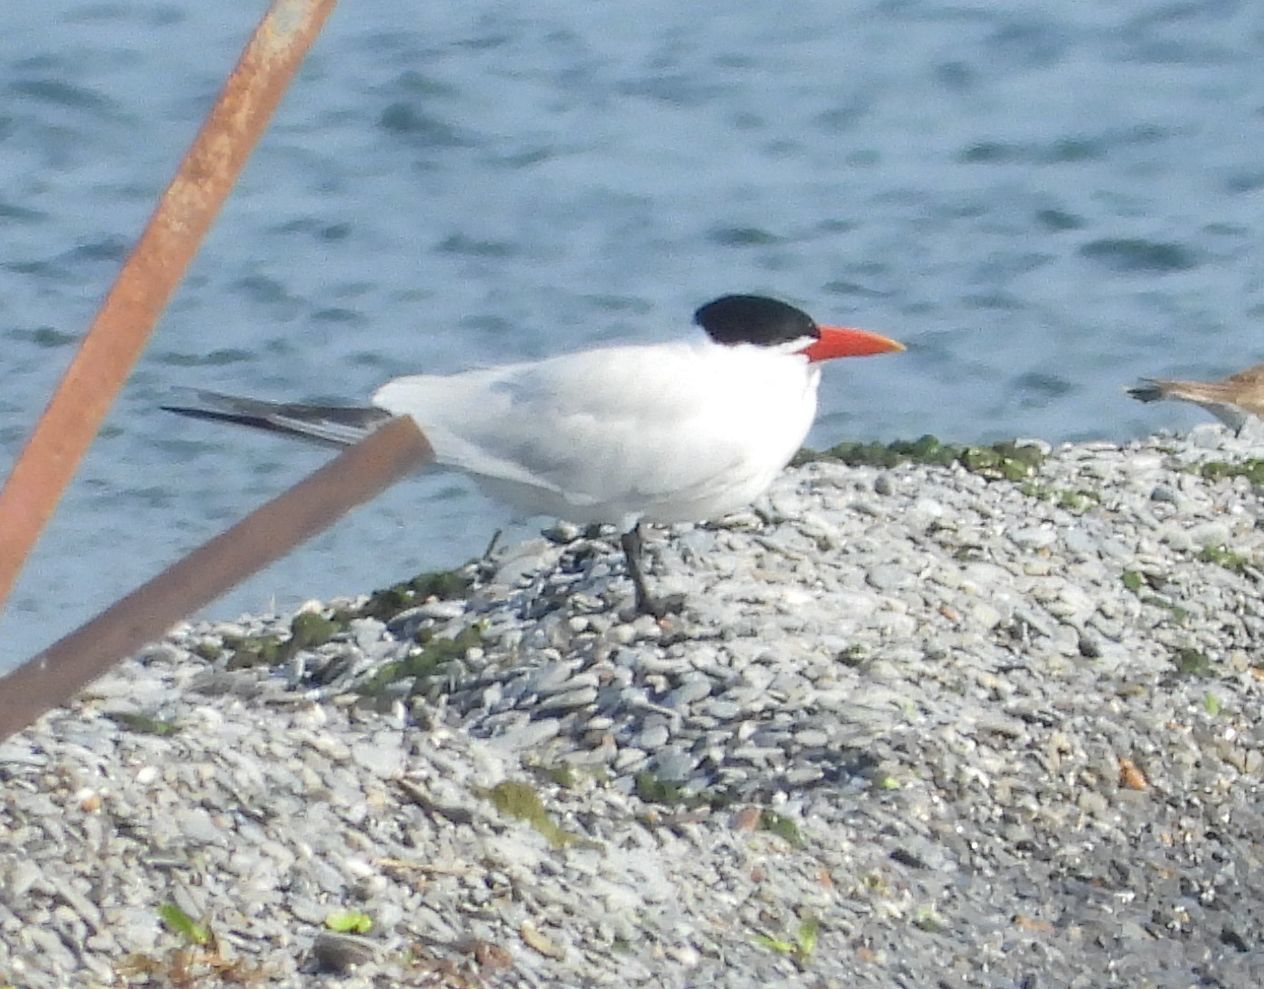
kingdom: Animalia
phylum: Chordata
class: Aves
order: Charadriiformes
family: Laridae
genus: Hydroprogne
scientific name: Hydroprogne caspia
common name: Caspian tern
